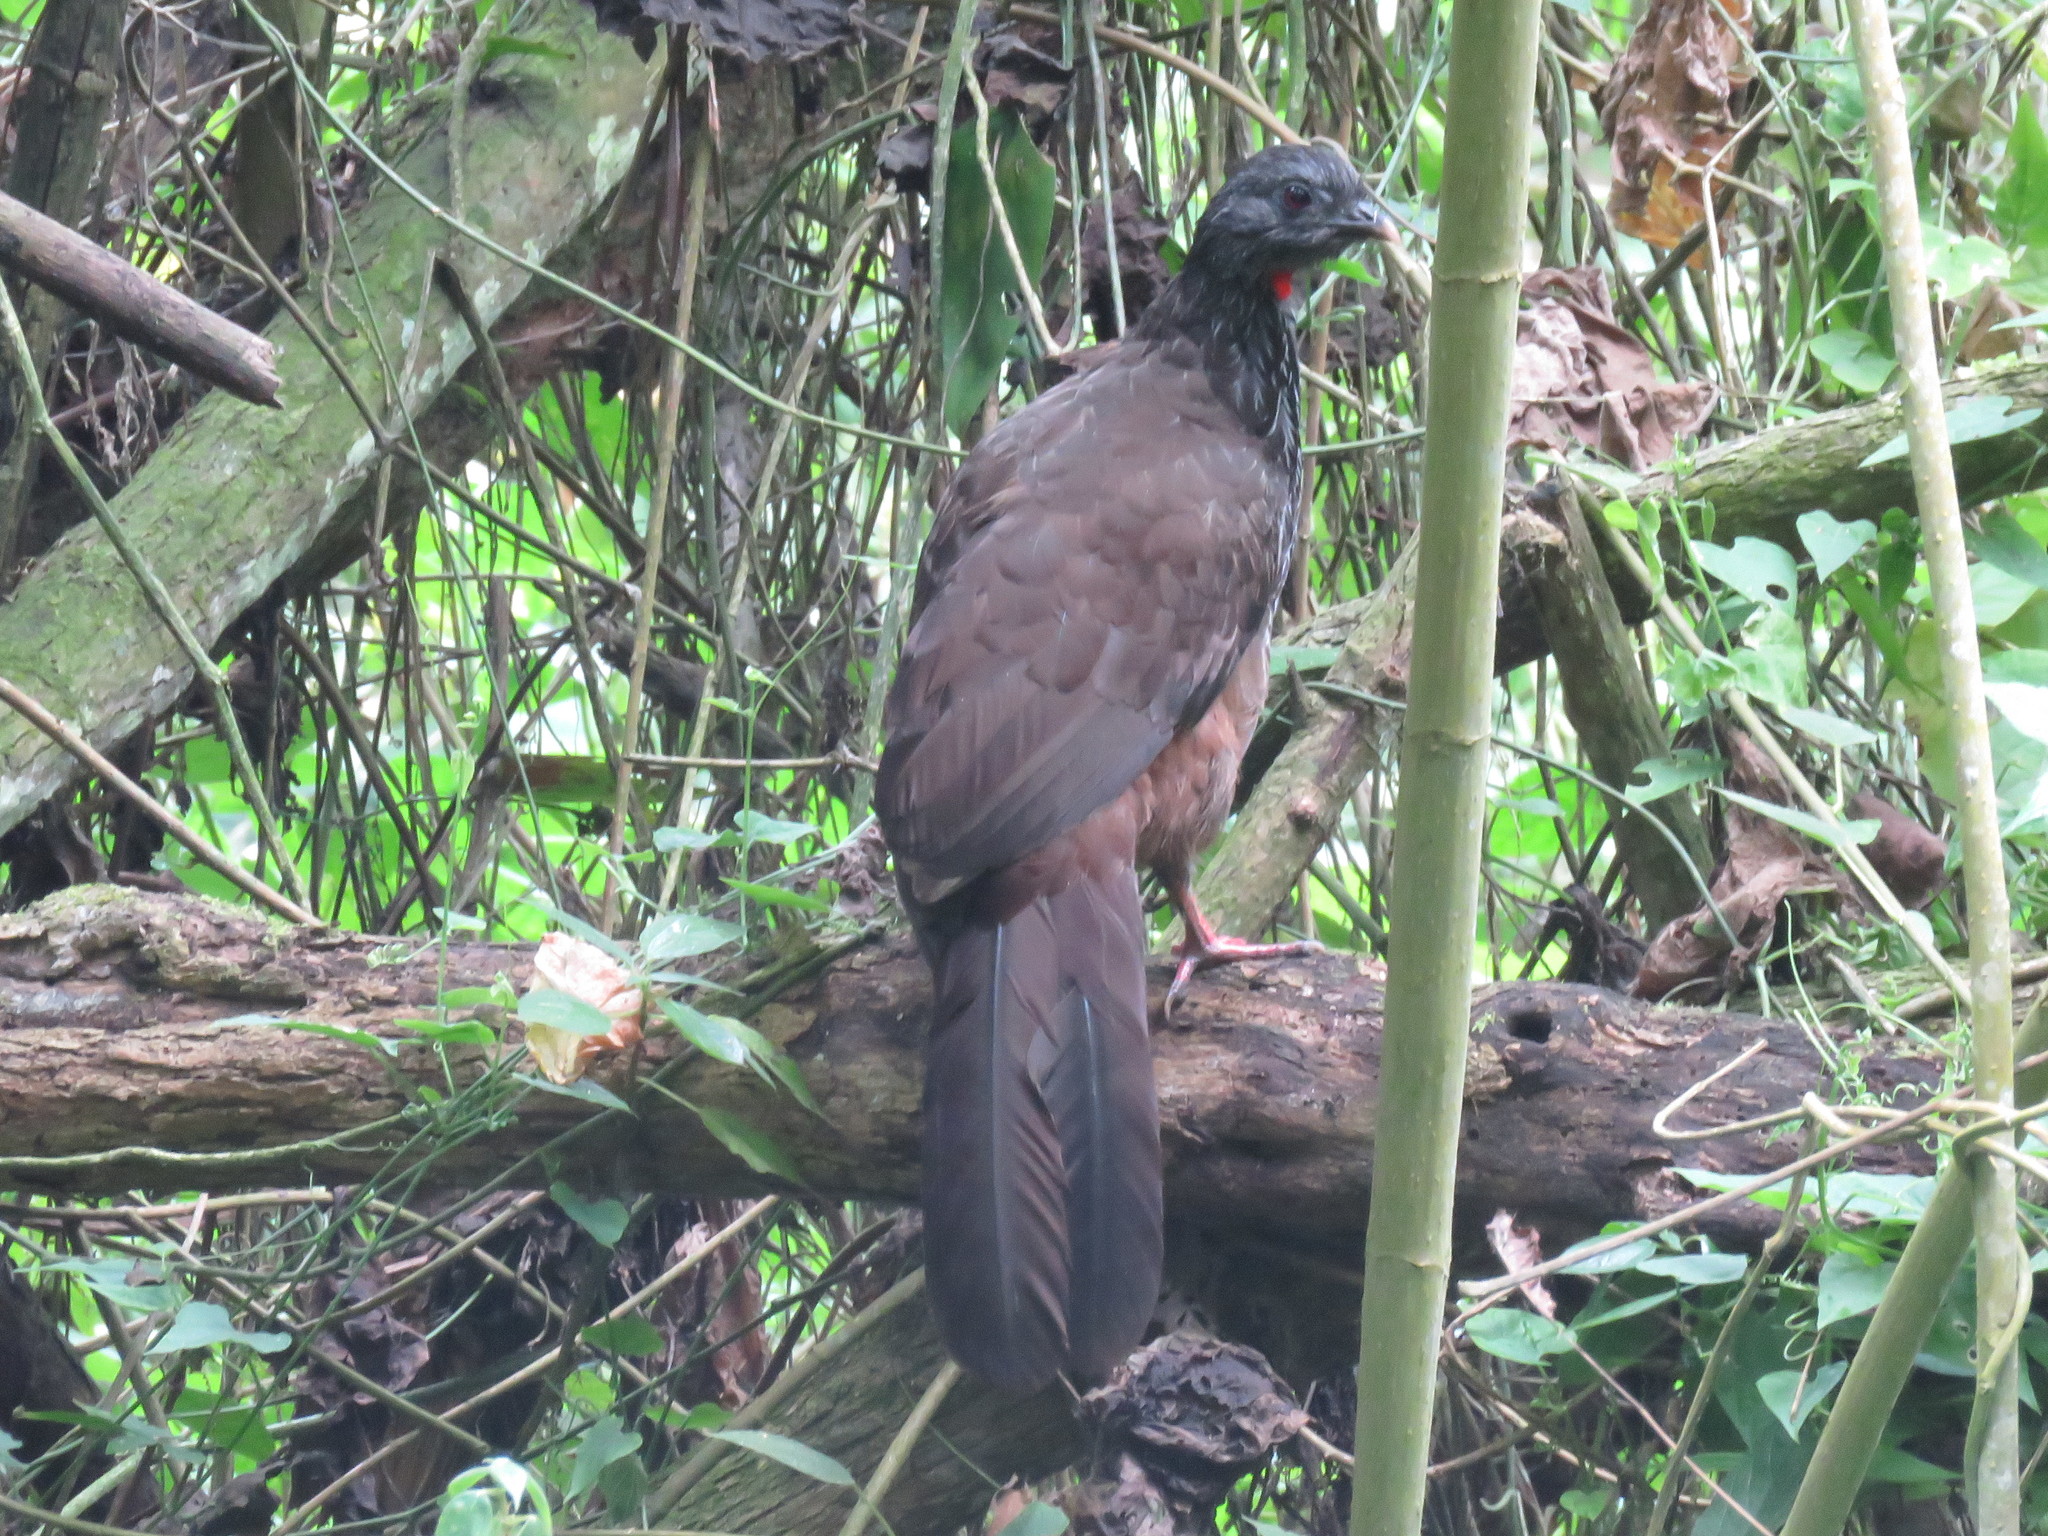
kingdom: Animalia
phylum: Chordata
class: Aves
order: Galliformes
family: Cracidae
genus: Penelope
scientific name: Penelope montagnii
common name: Andean guan
